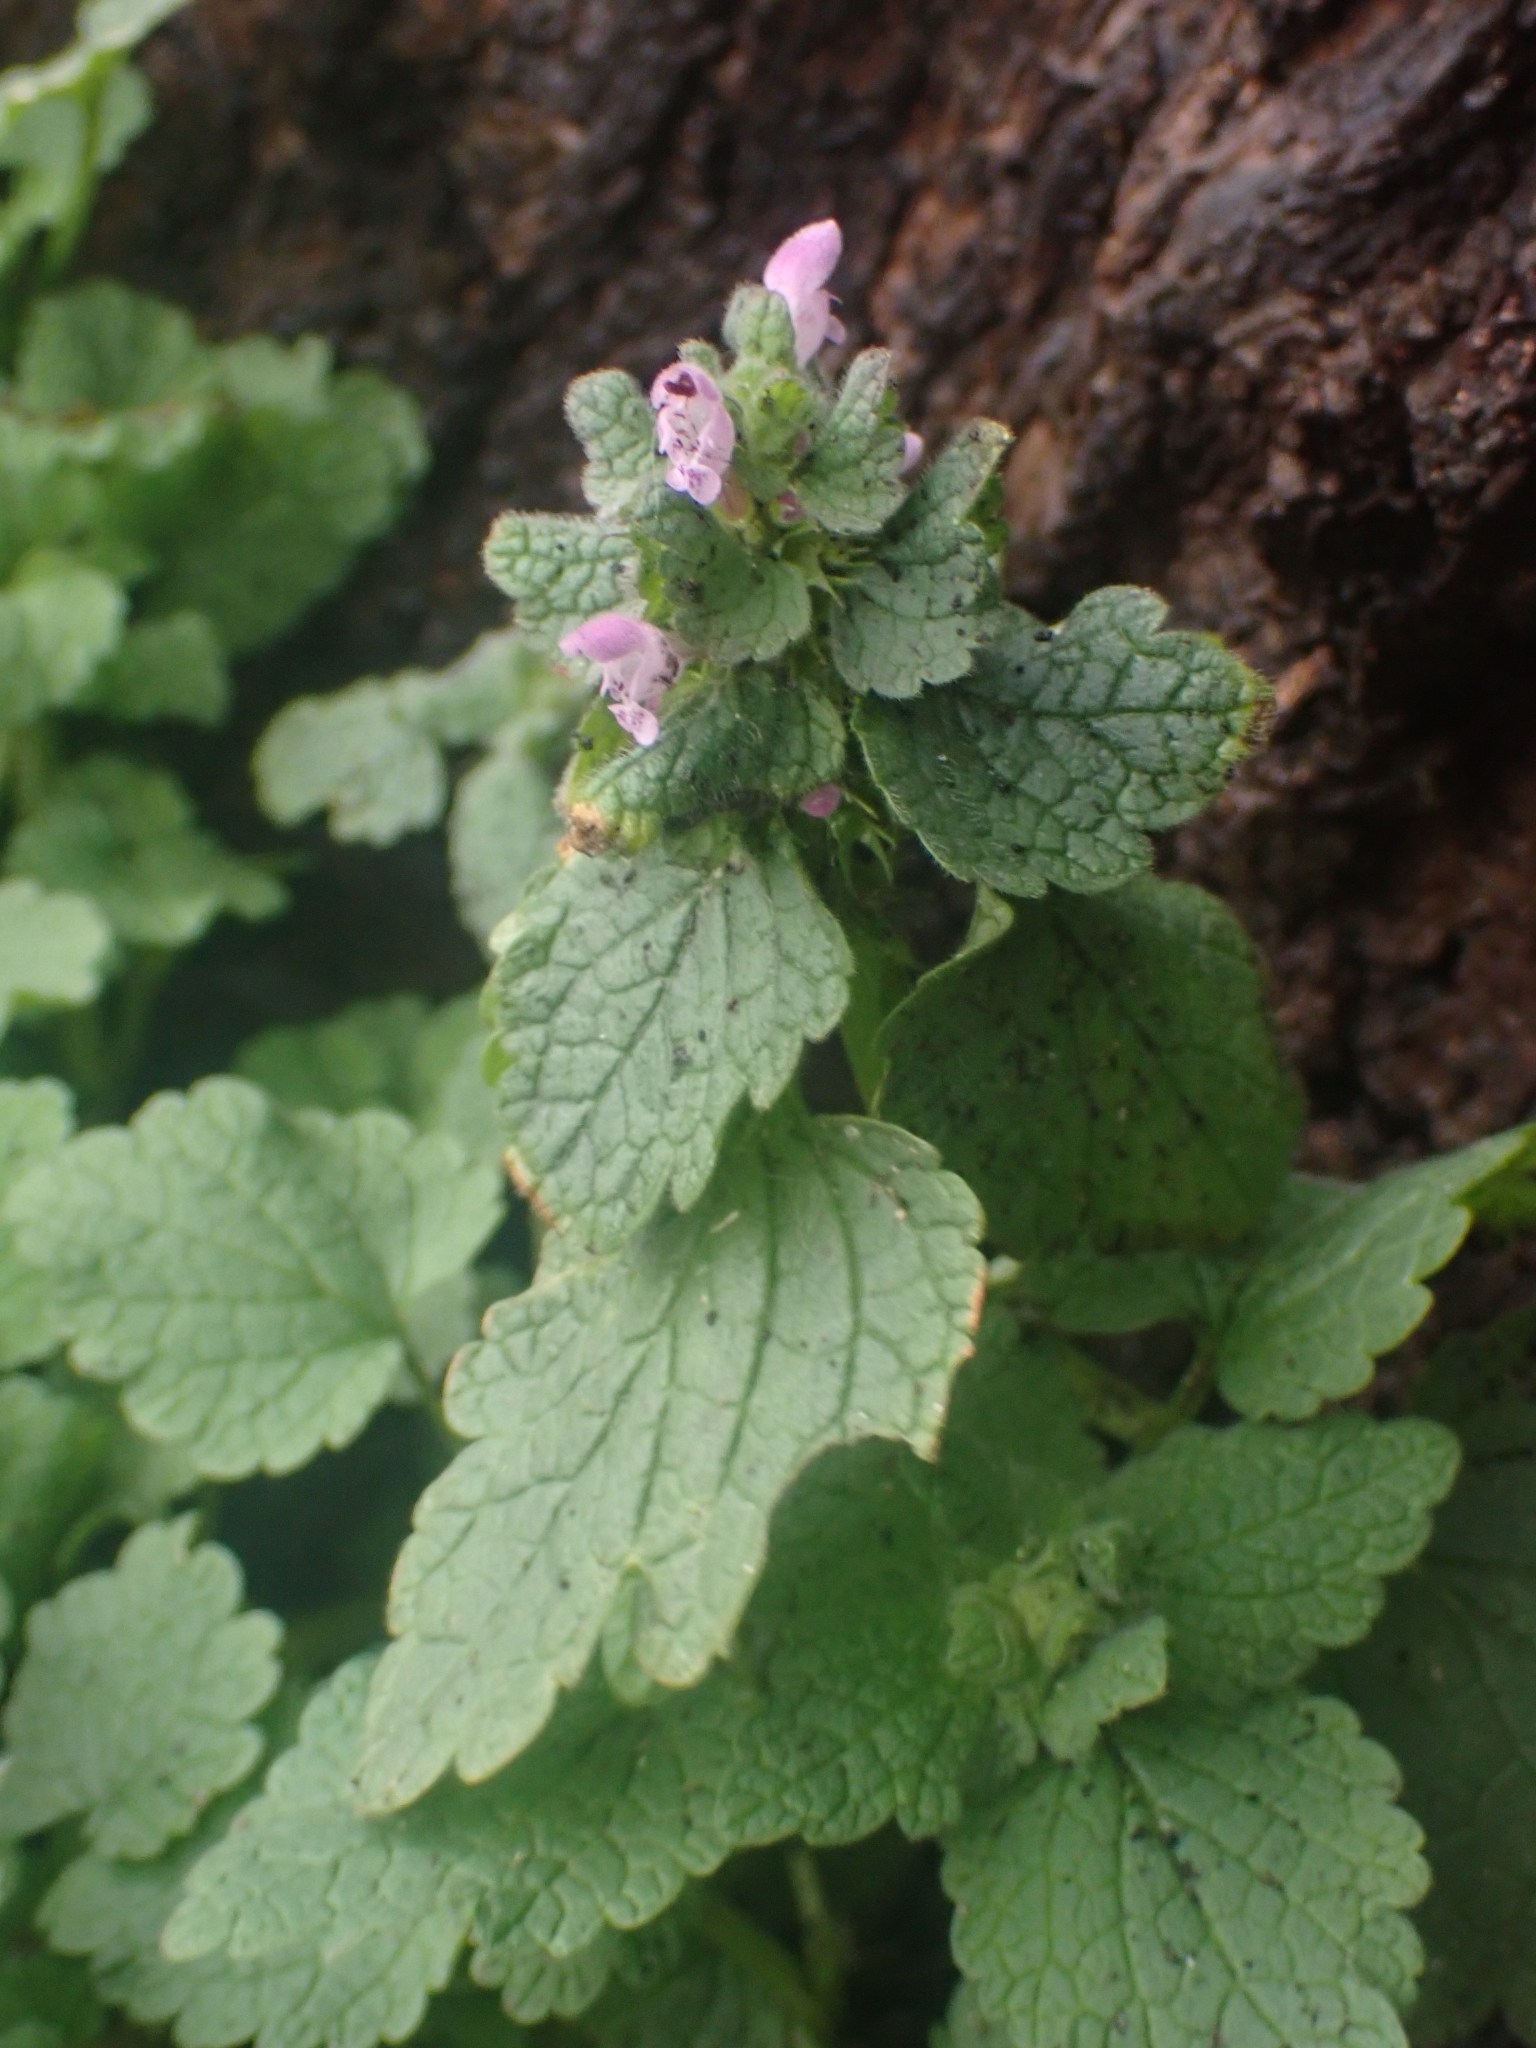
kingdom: Plantae
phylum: Tracheophyta
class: Magnoliopsida
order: Lamiales
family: Lamiaceae
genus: Lamium
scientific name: Lamium purpureum
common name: Red dead-nettle
